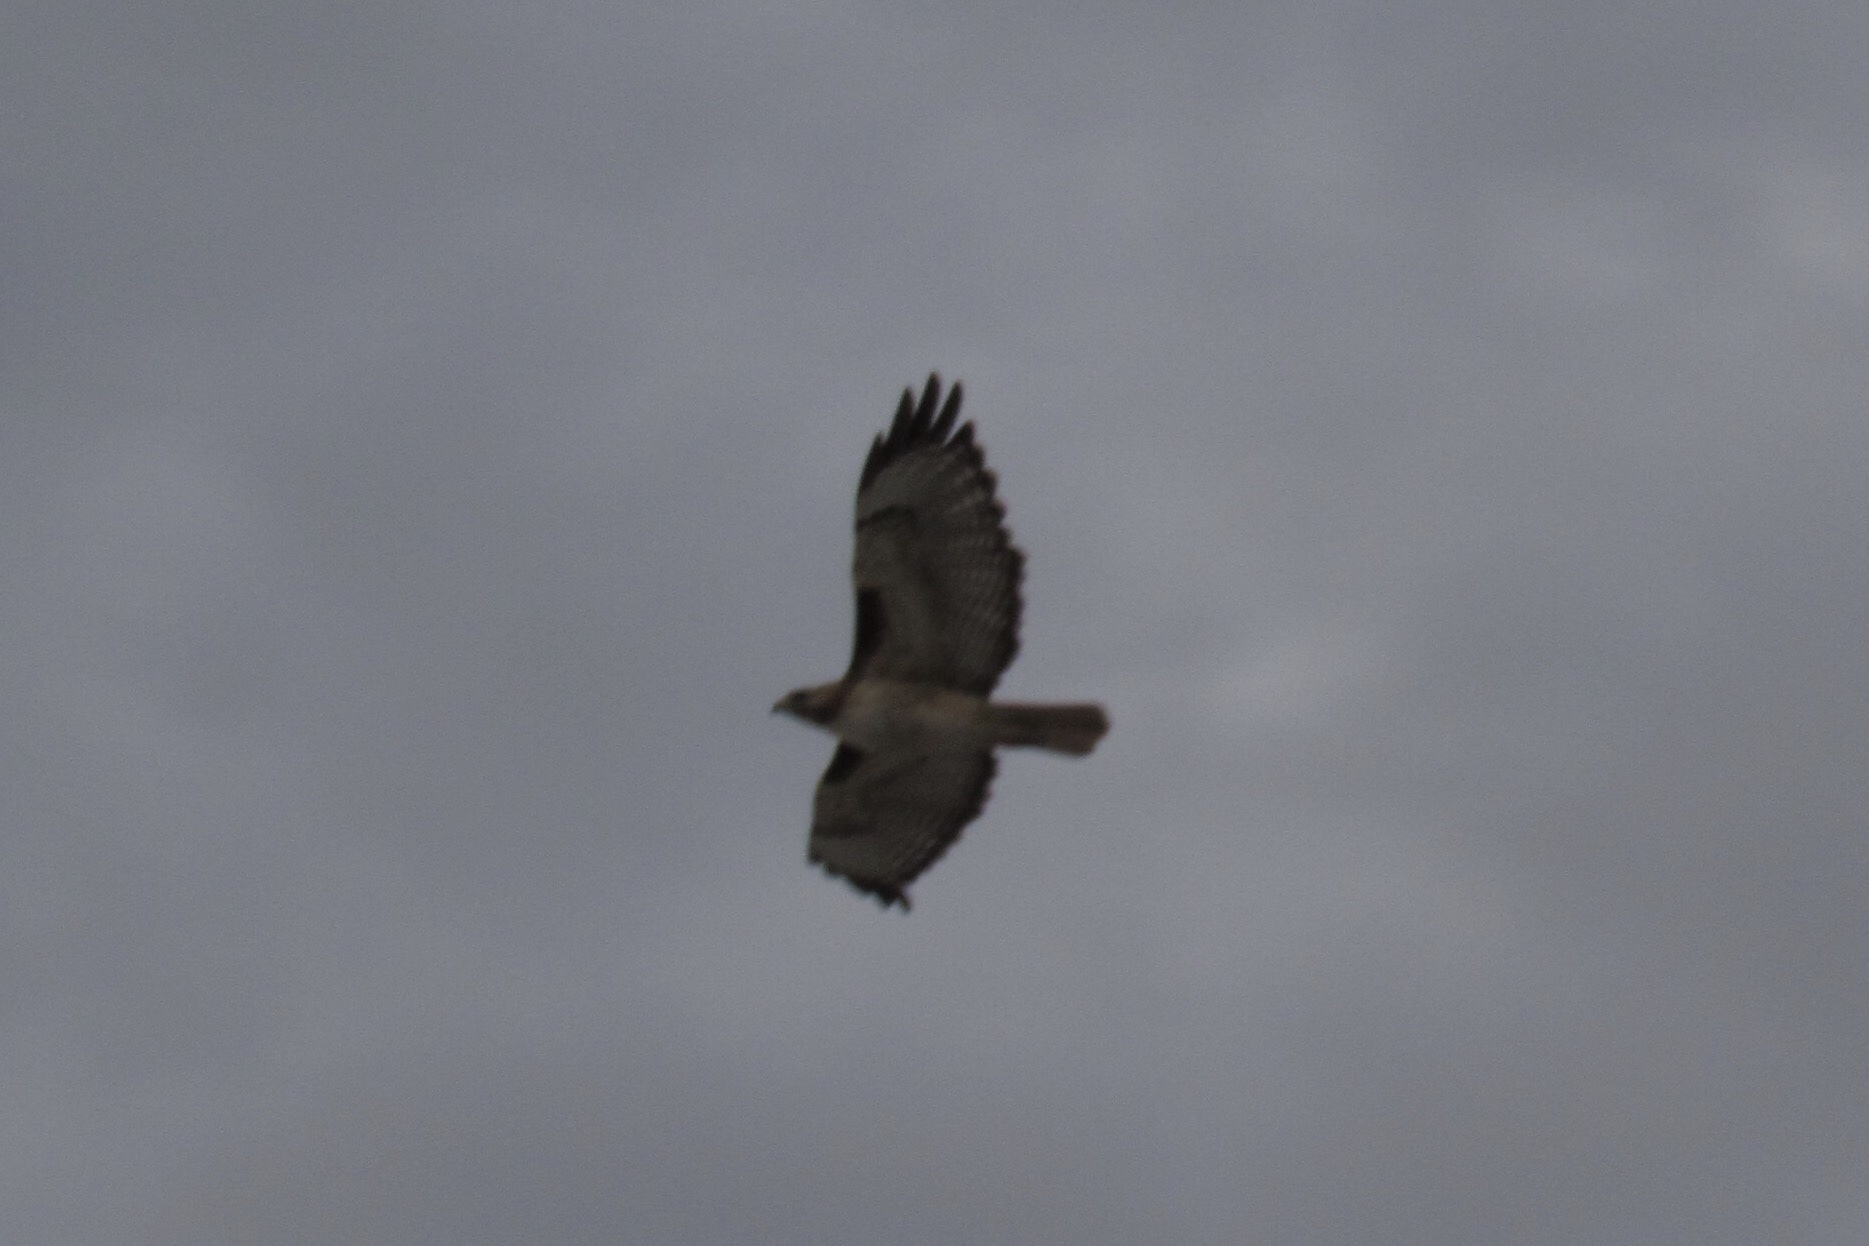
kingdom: Animalia
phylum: Chordata
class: Aves
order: Accipitriformes
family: Accipitridae
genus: Buteo
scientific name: Buteo jamaicensis
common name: Red-tailed hawk
